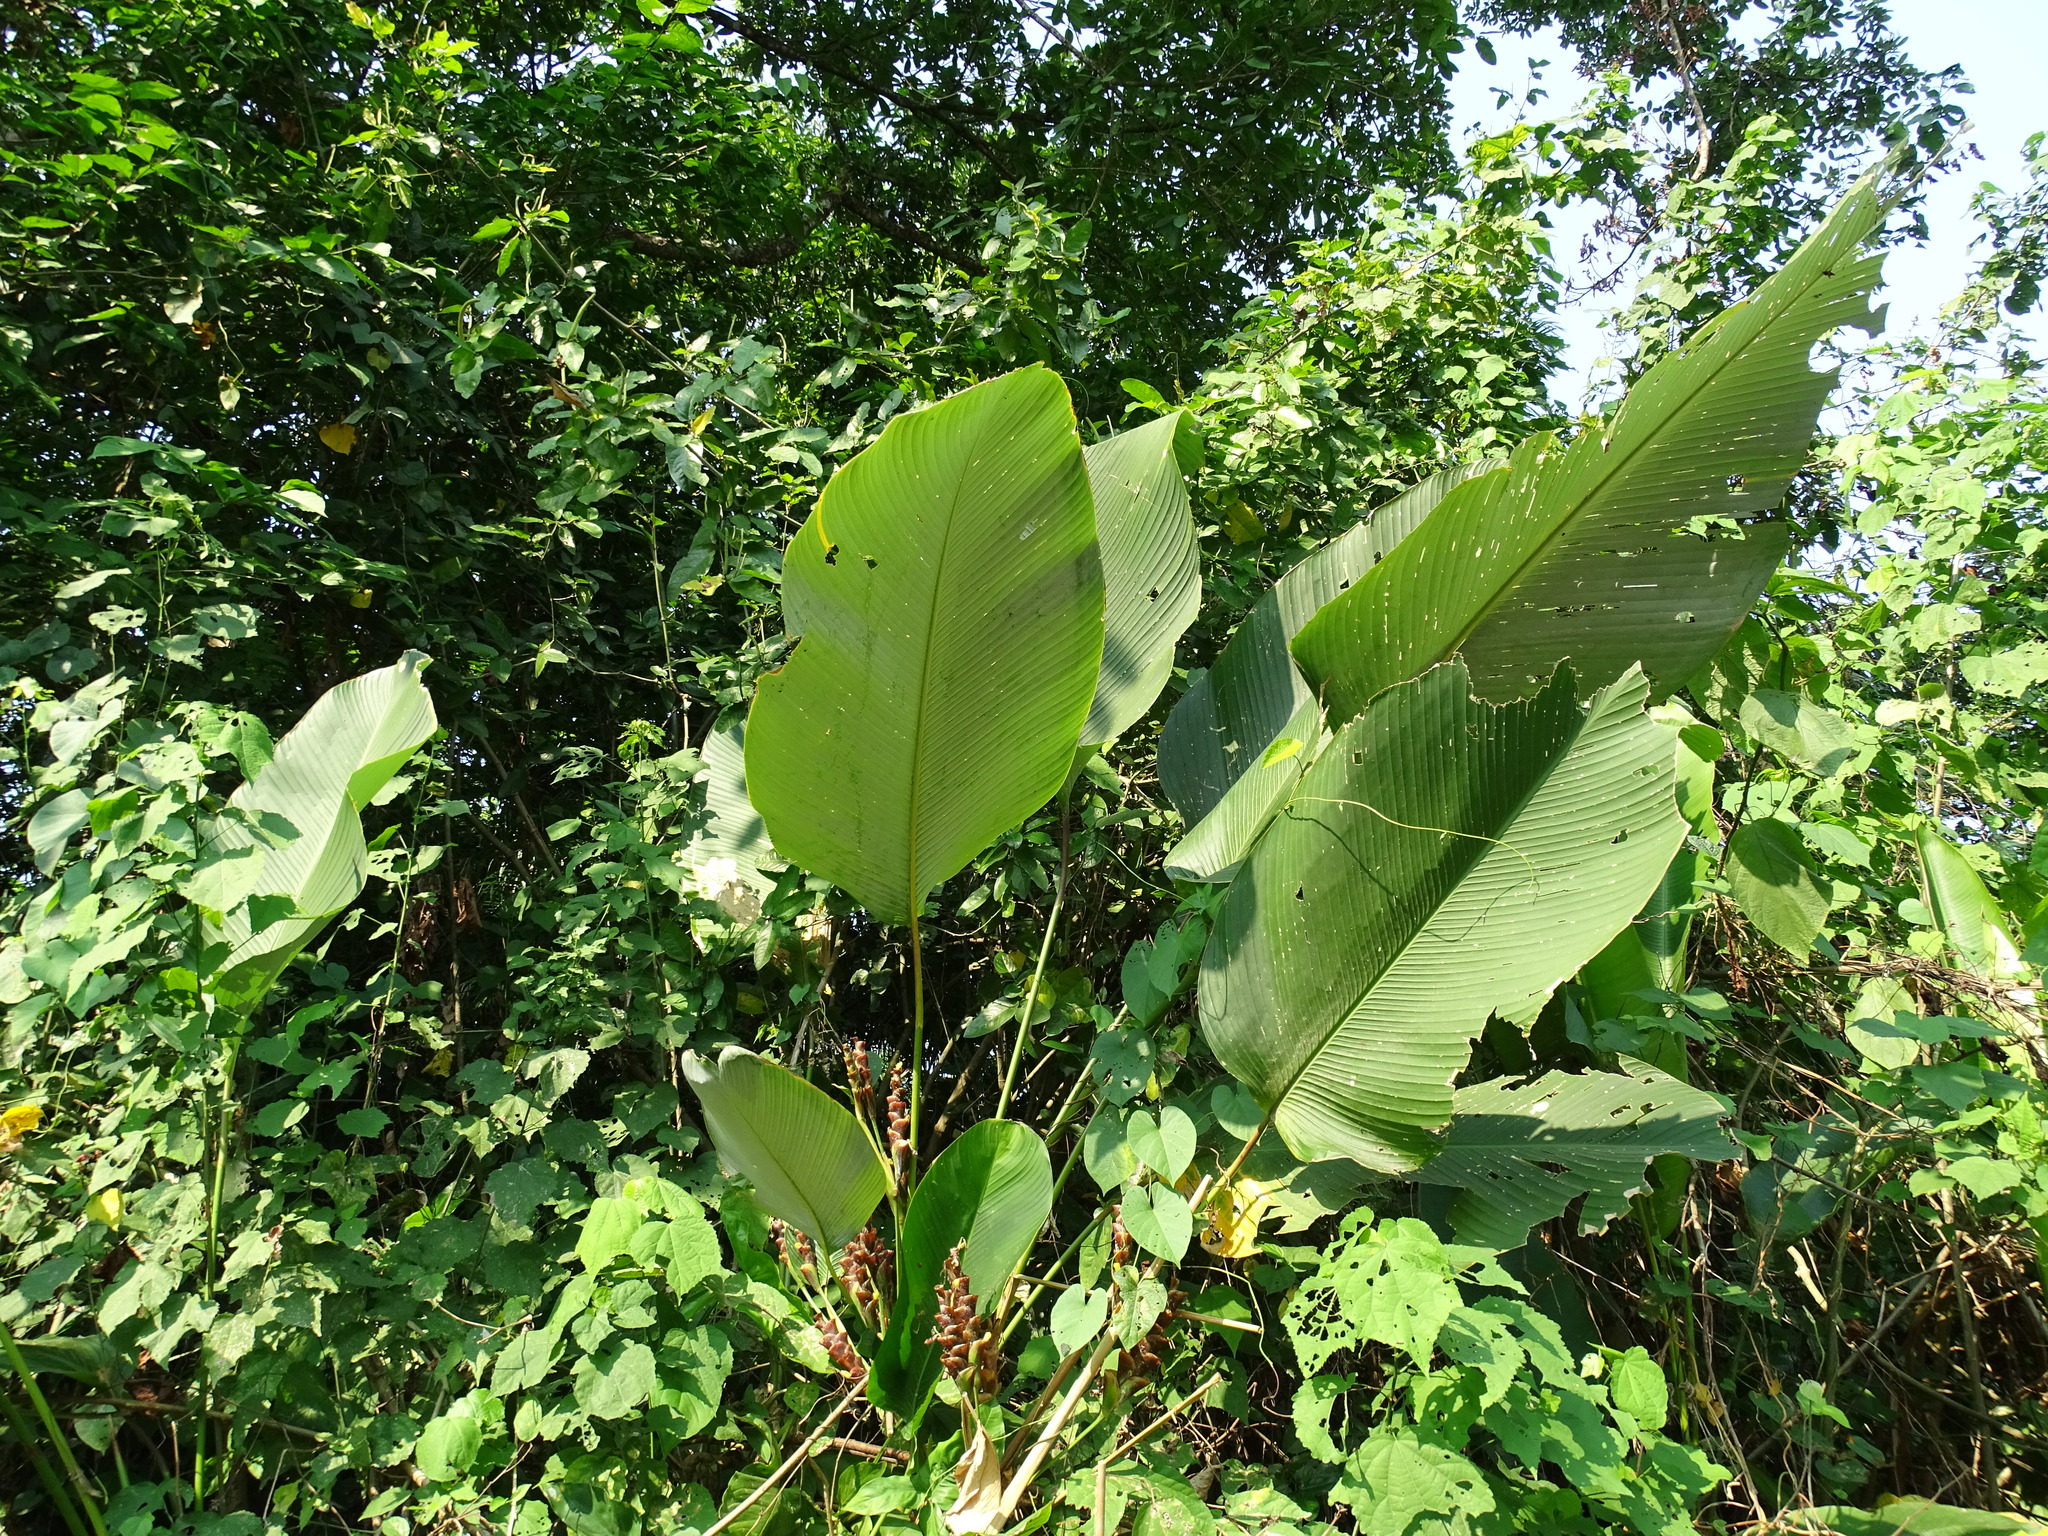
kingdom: Plantae
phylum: Tracheophyta
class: Liliopsida
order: Zingiberales
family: Marantaceae
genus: Calathea
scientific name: Calathea lutea
